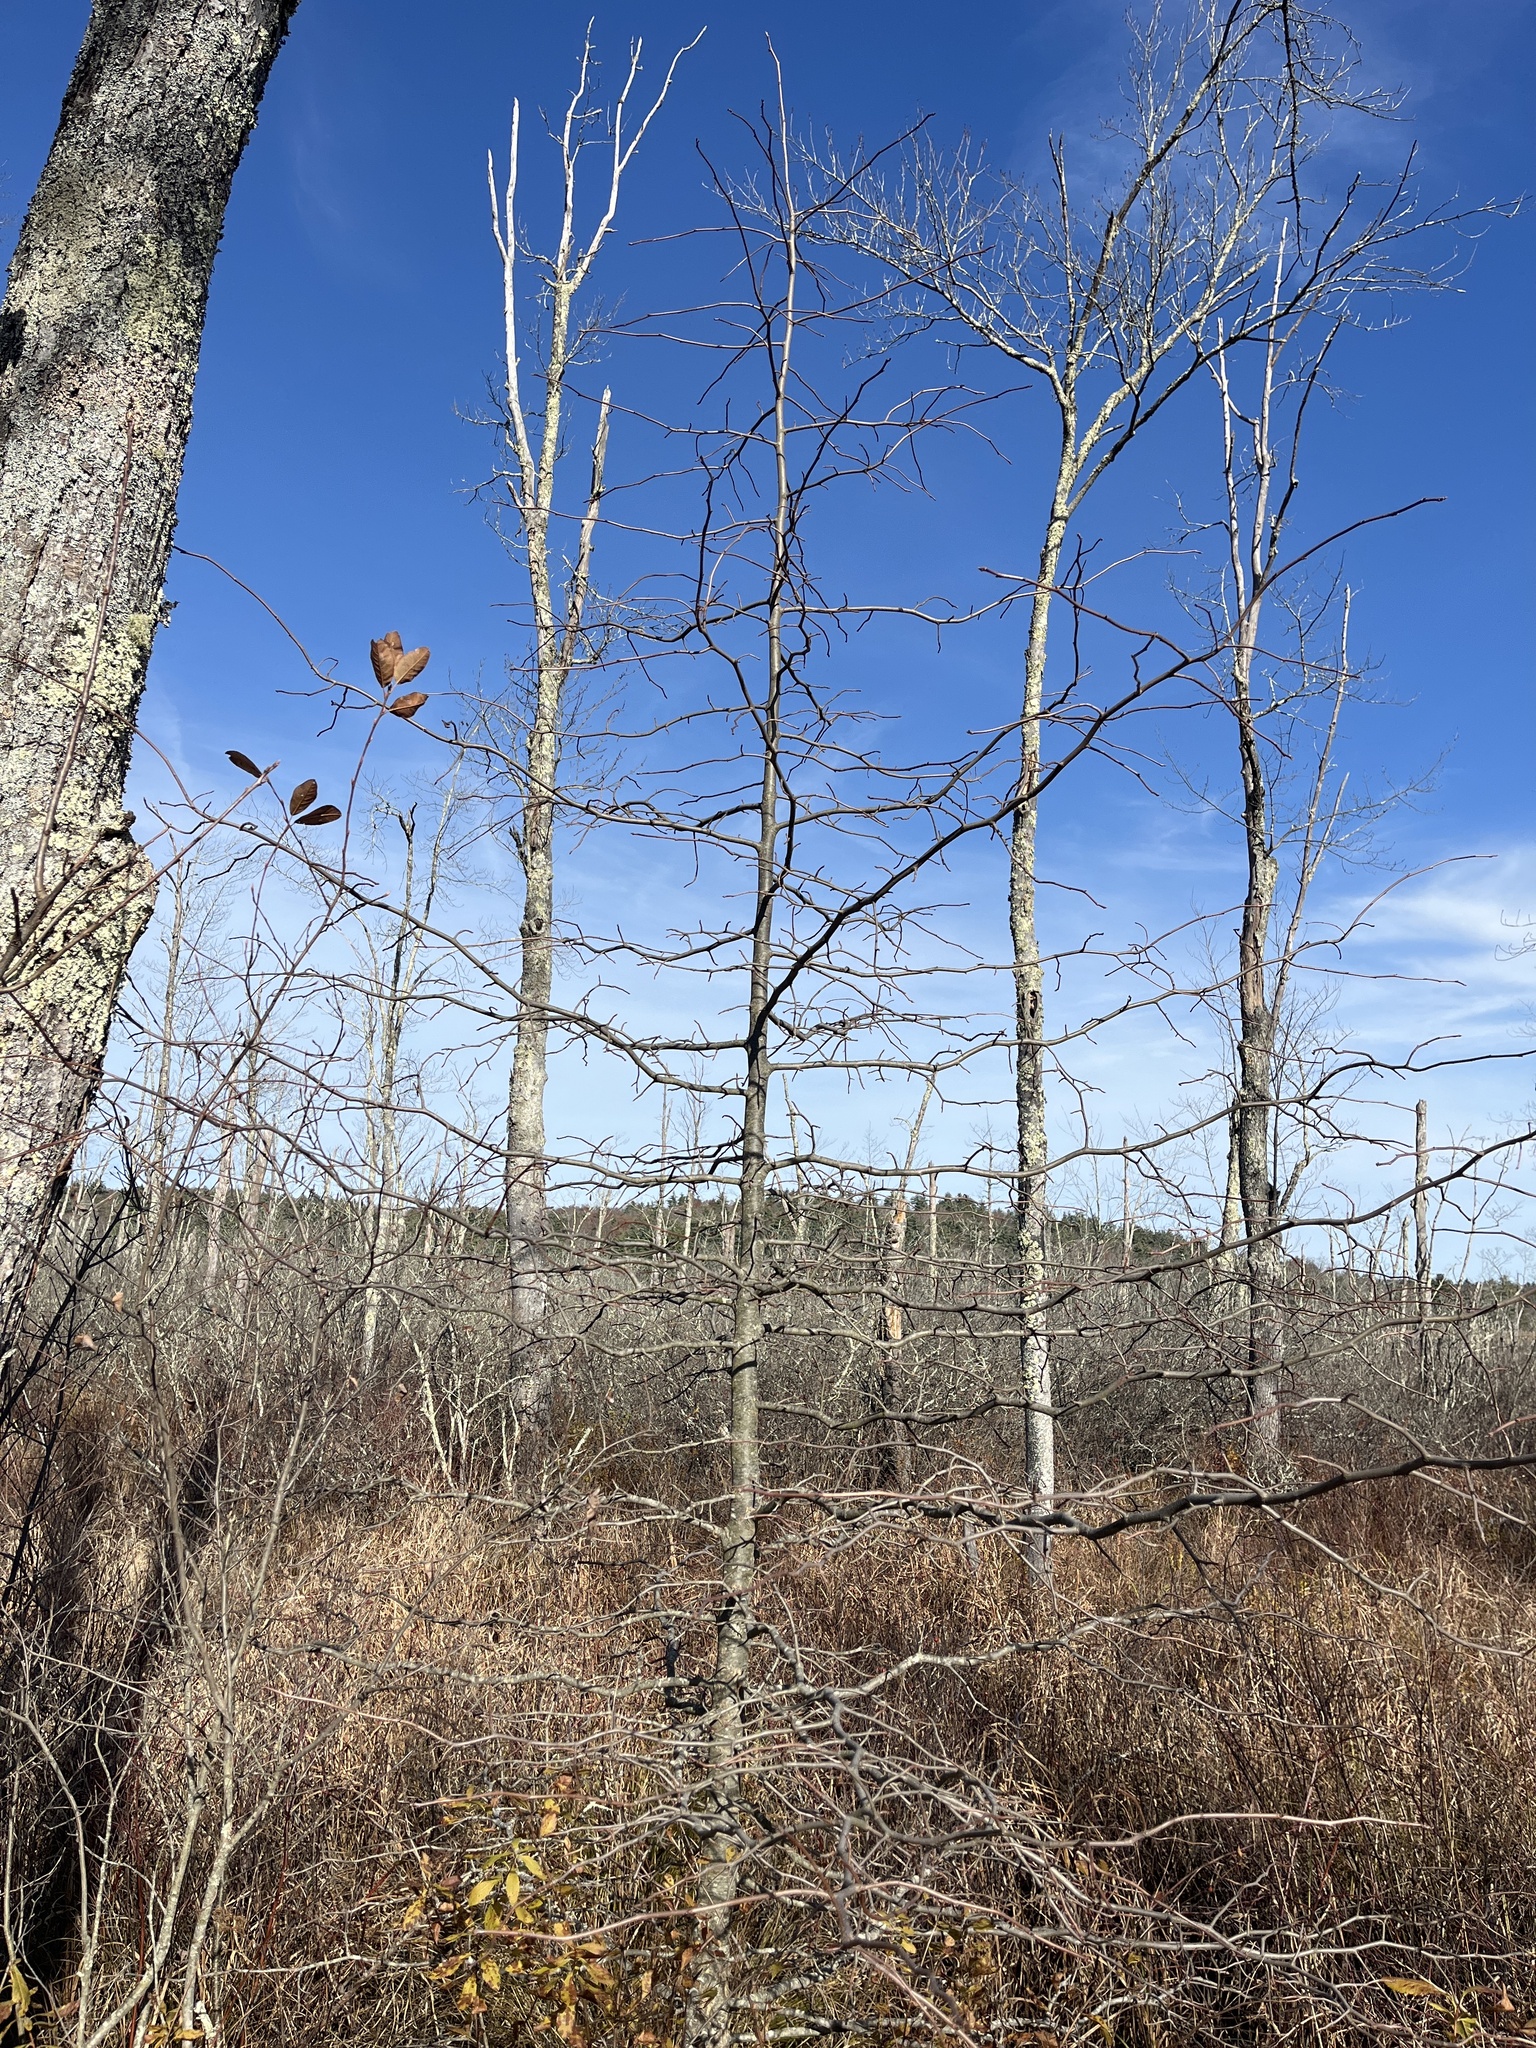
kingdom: Plantae
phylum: Tracheophyta
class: Magnoliopsida
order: Cornales
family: Nyssaceae
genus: Nyssa
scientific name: Nyssa sylvatica
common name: Black tupelo
